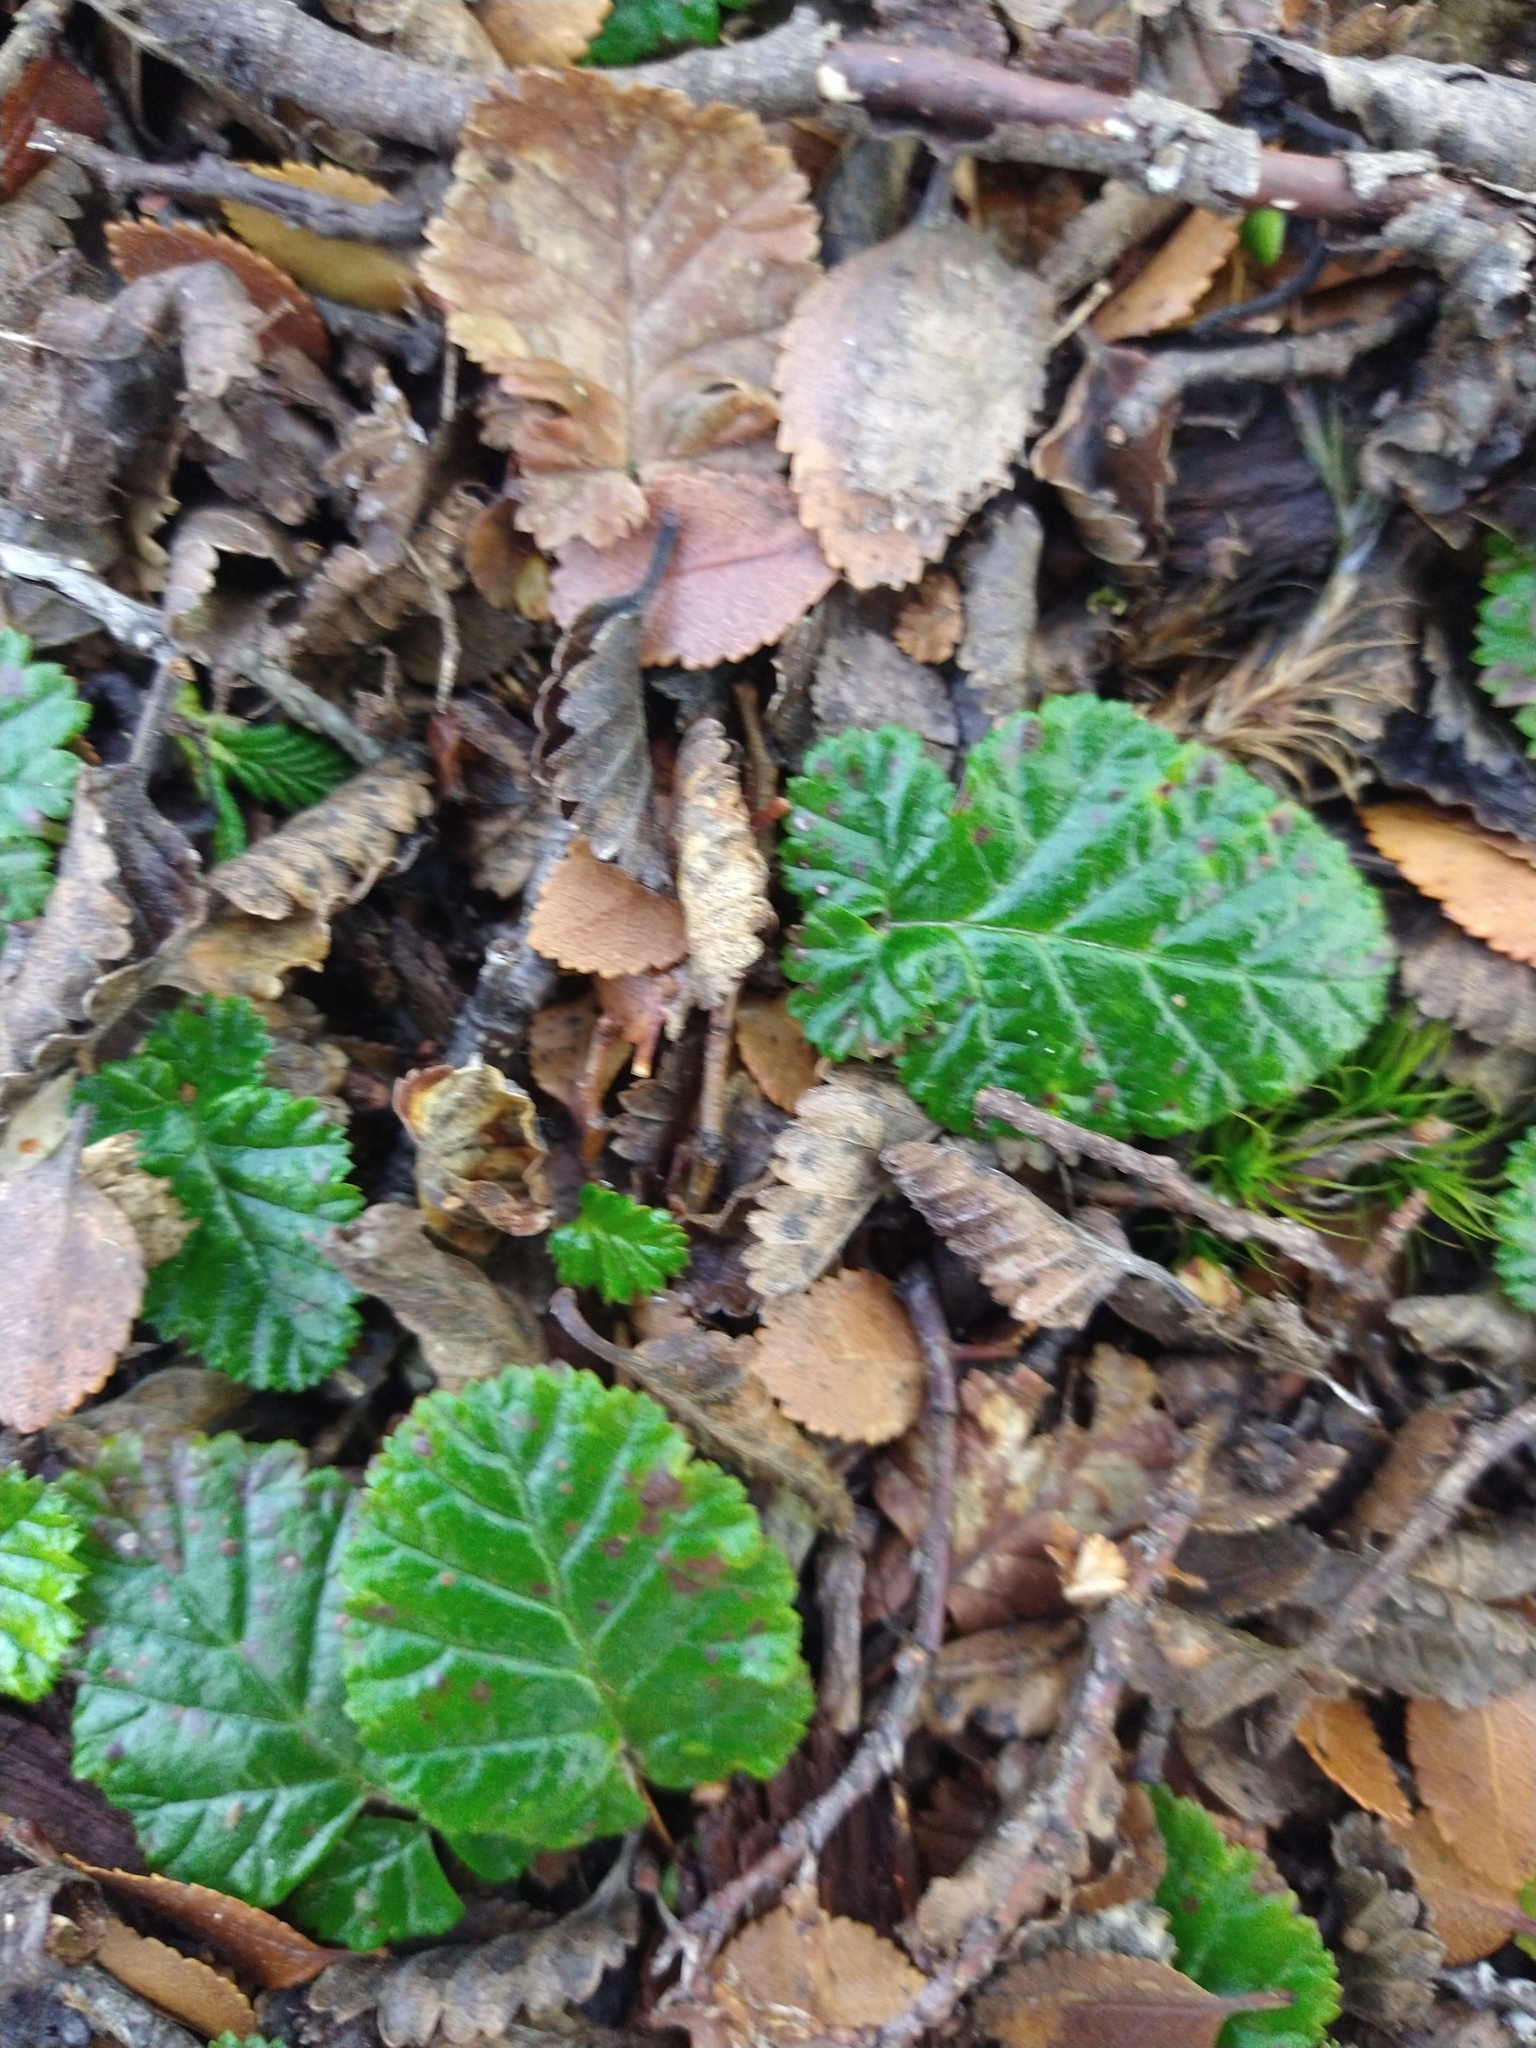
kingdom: Plantae
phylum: Tracheophyta
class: Magnoliopsida
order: Rosales
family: Rosaceae
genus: Rubus
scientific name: Rubus geoides
